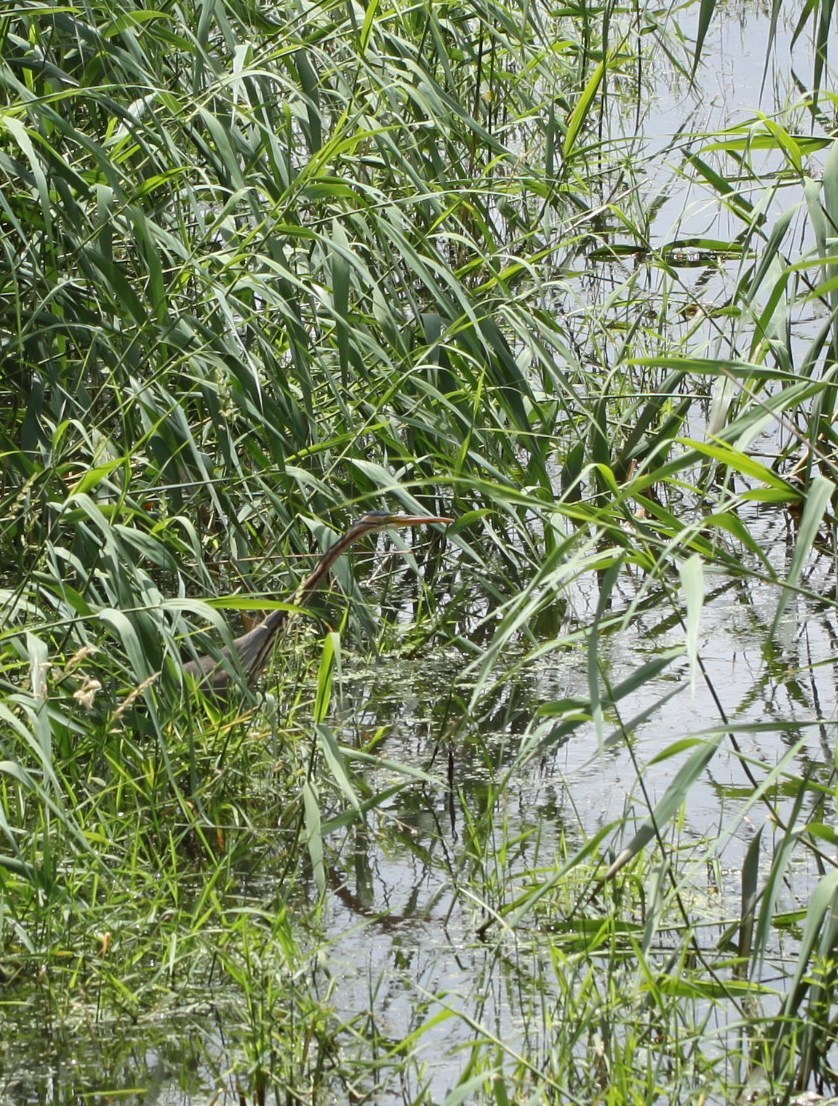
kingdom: Animalia
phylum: Chordata
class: Aves
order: Pelecaniformes
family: Ardeidae
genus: Ardea
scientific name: Ardea purpurea
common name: Purple heron
